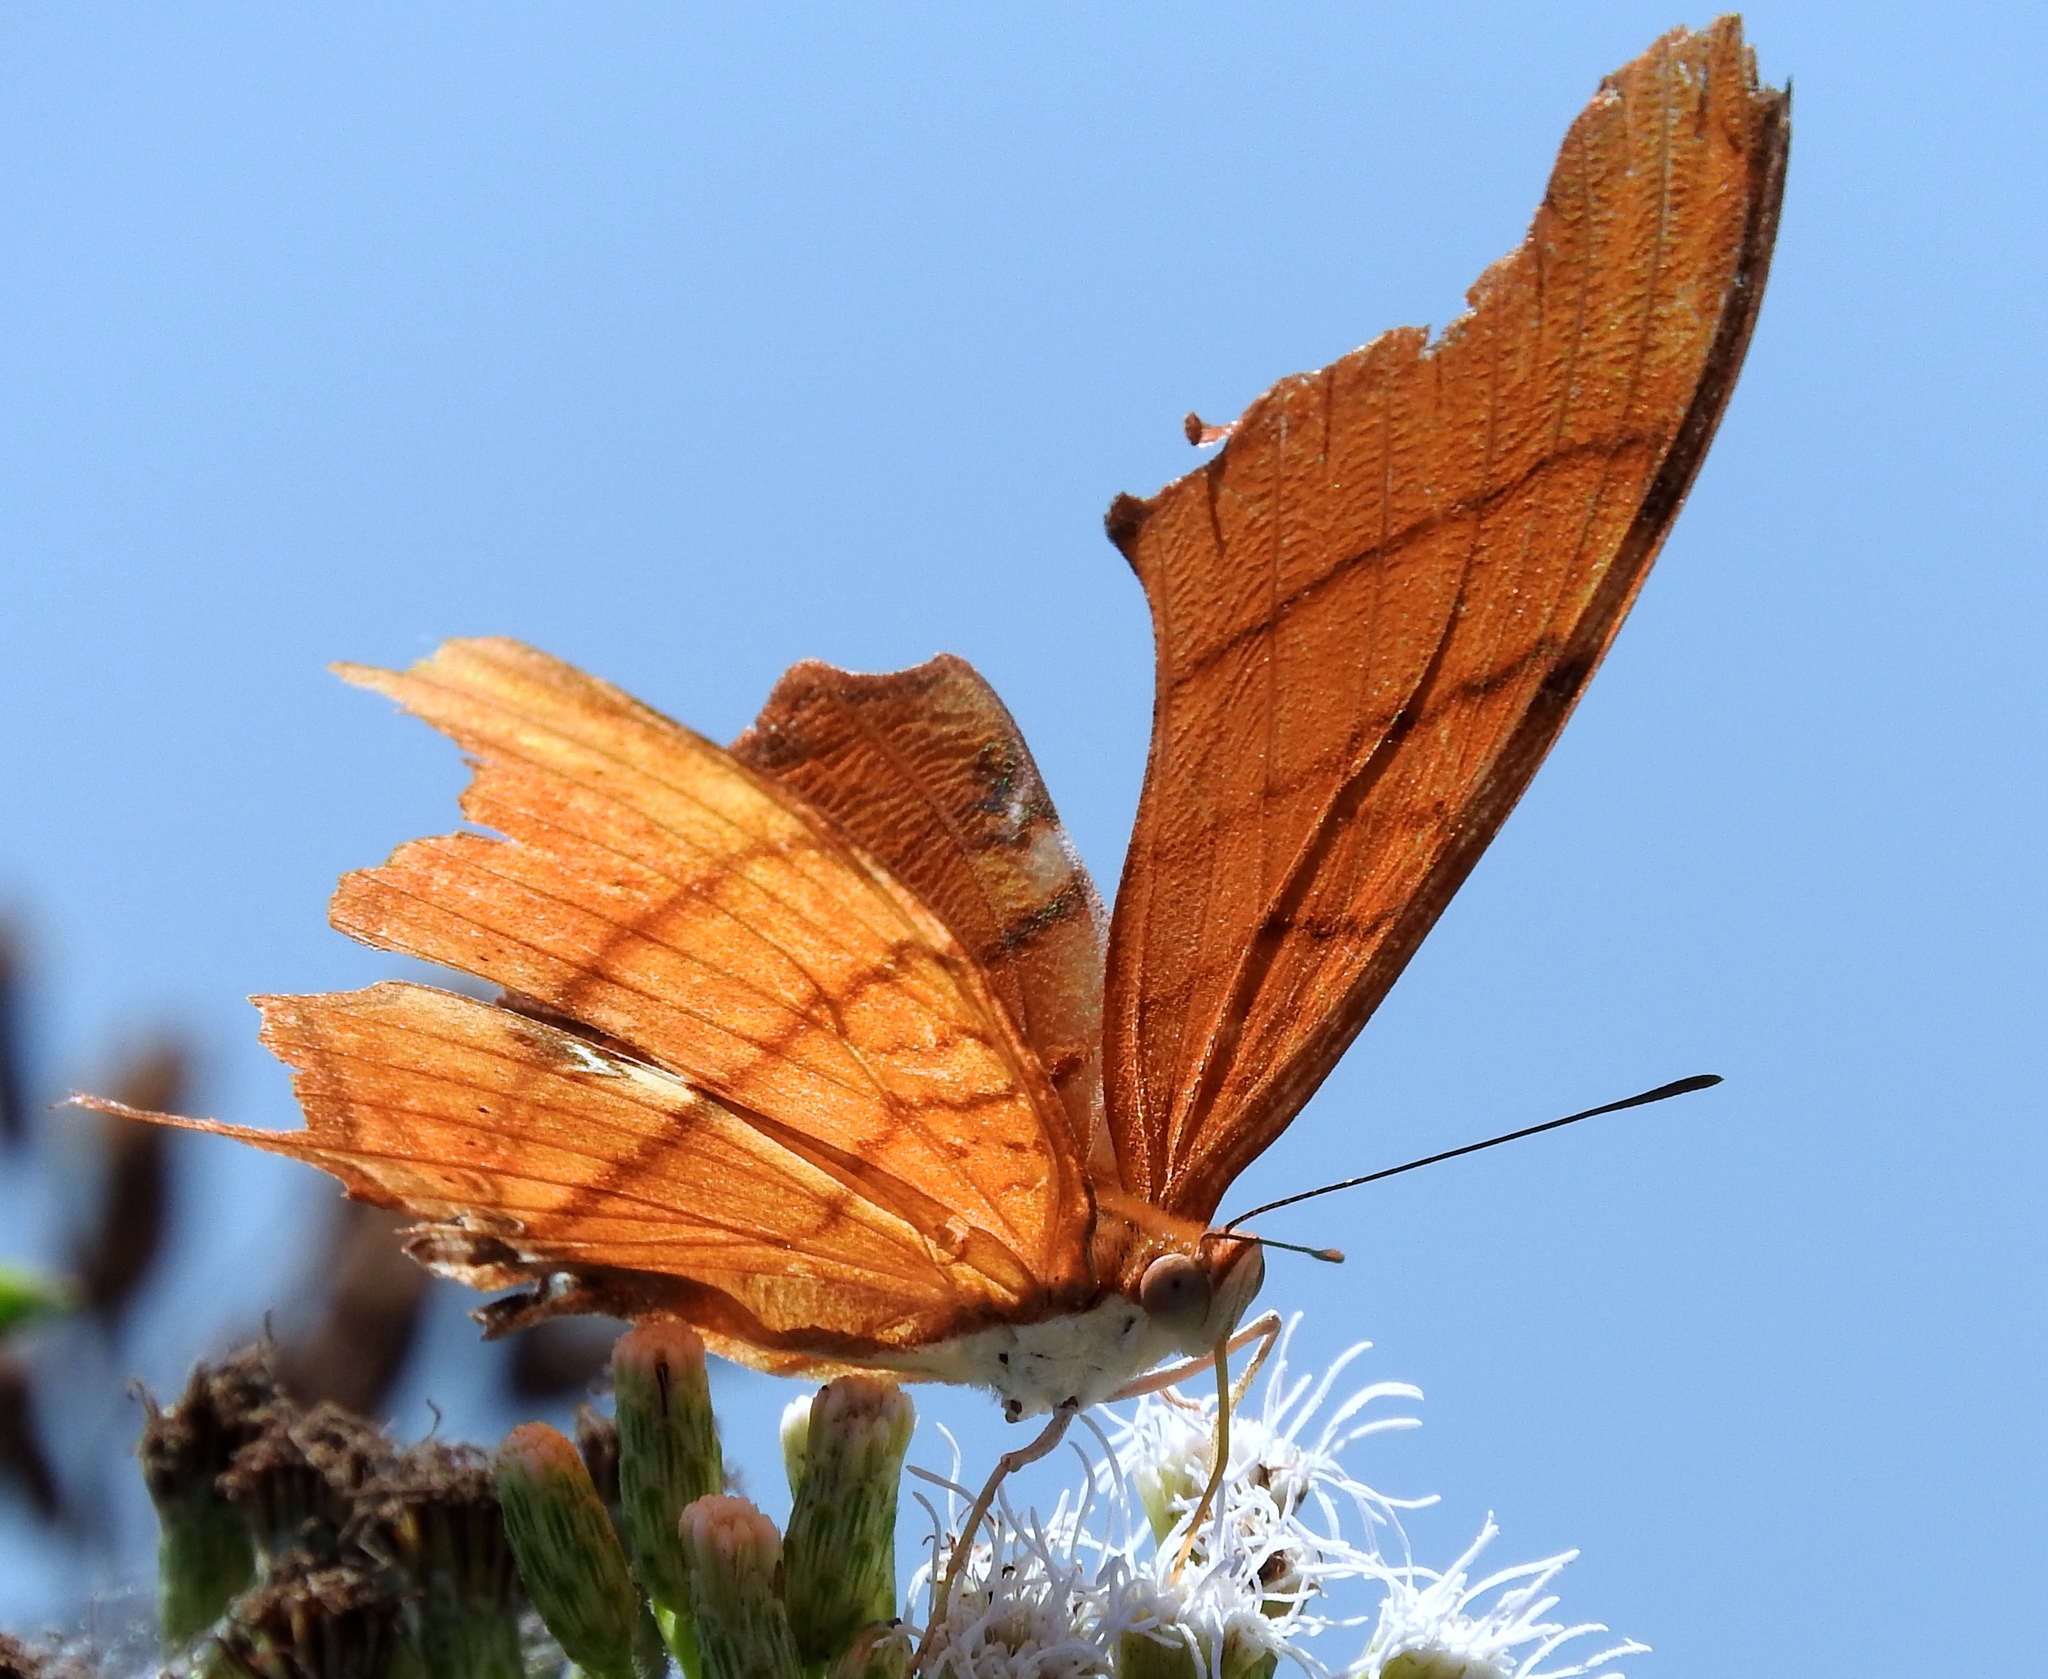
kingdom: Animalia
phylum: Arthropoda
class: Insecta
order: Lepidoptera
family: Nymphalidae
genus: Marpesia
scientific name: Marpesia petreus
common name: Red dagger wing
